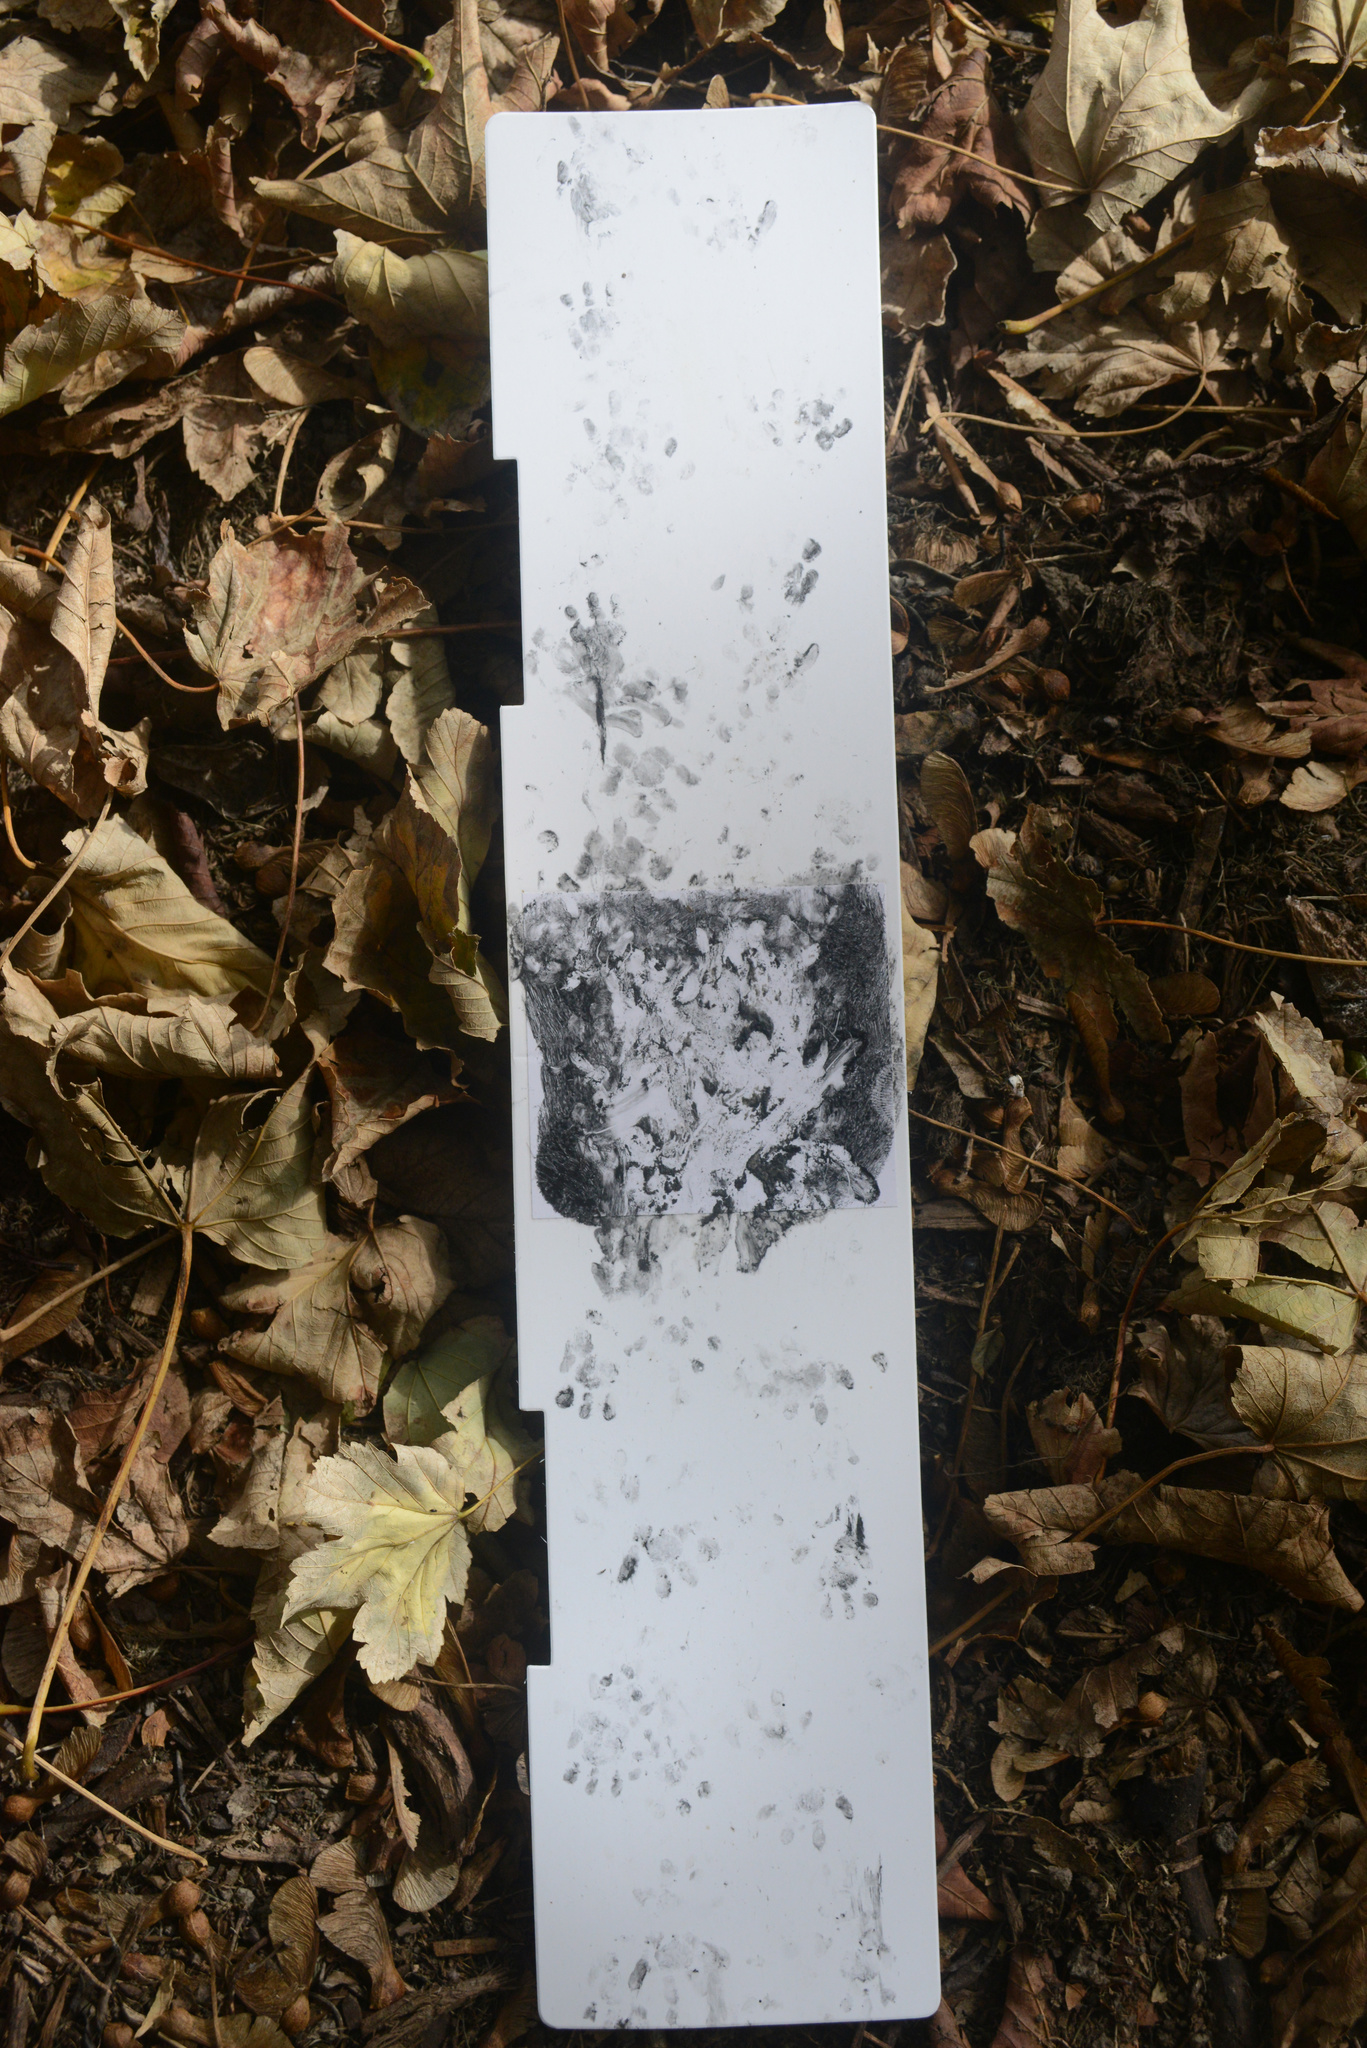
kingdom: Animalia
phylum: Chordata
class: Mammalia
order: Erinaceomorpha
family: Erinaceidae
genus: Erinaceus
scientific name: Erinaceus europaeus
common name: West european hedgehog
